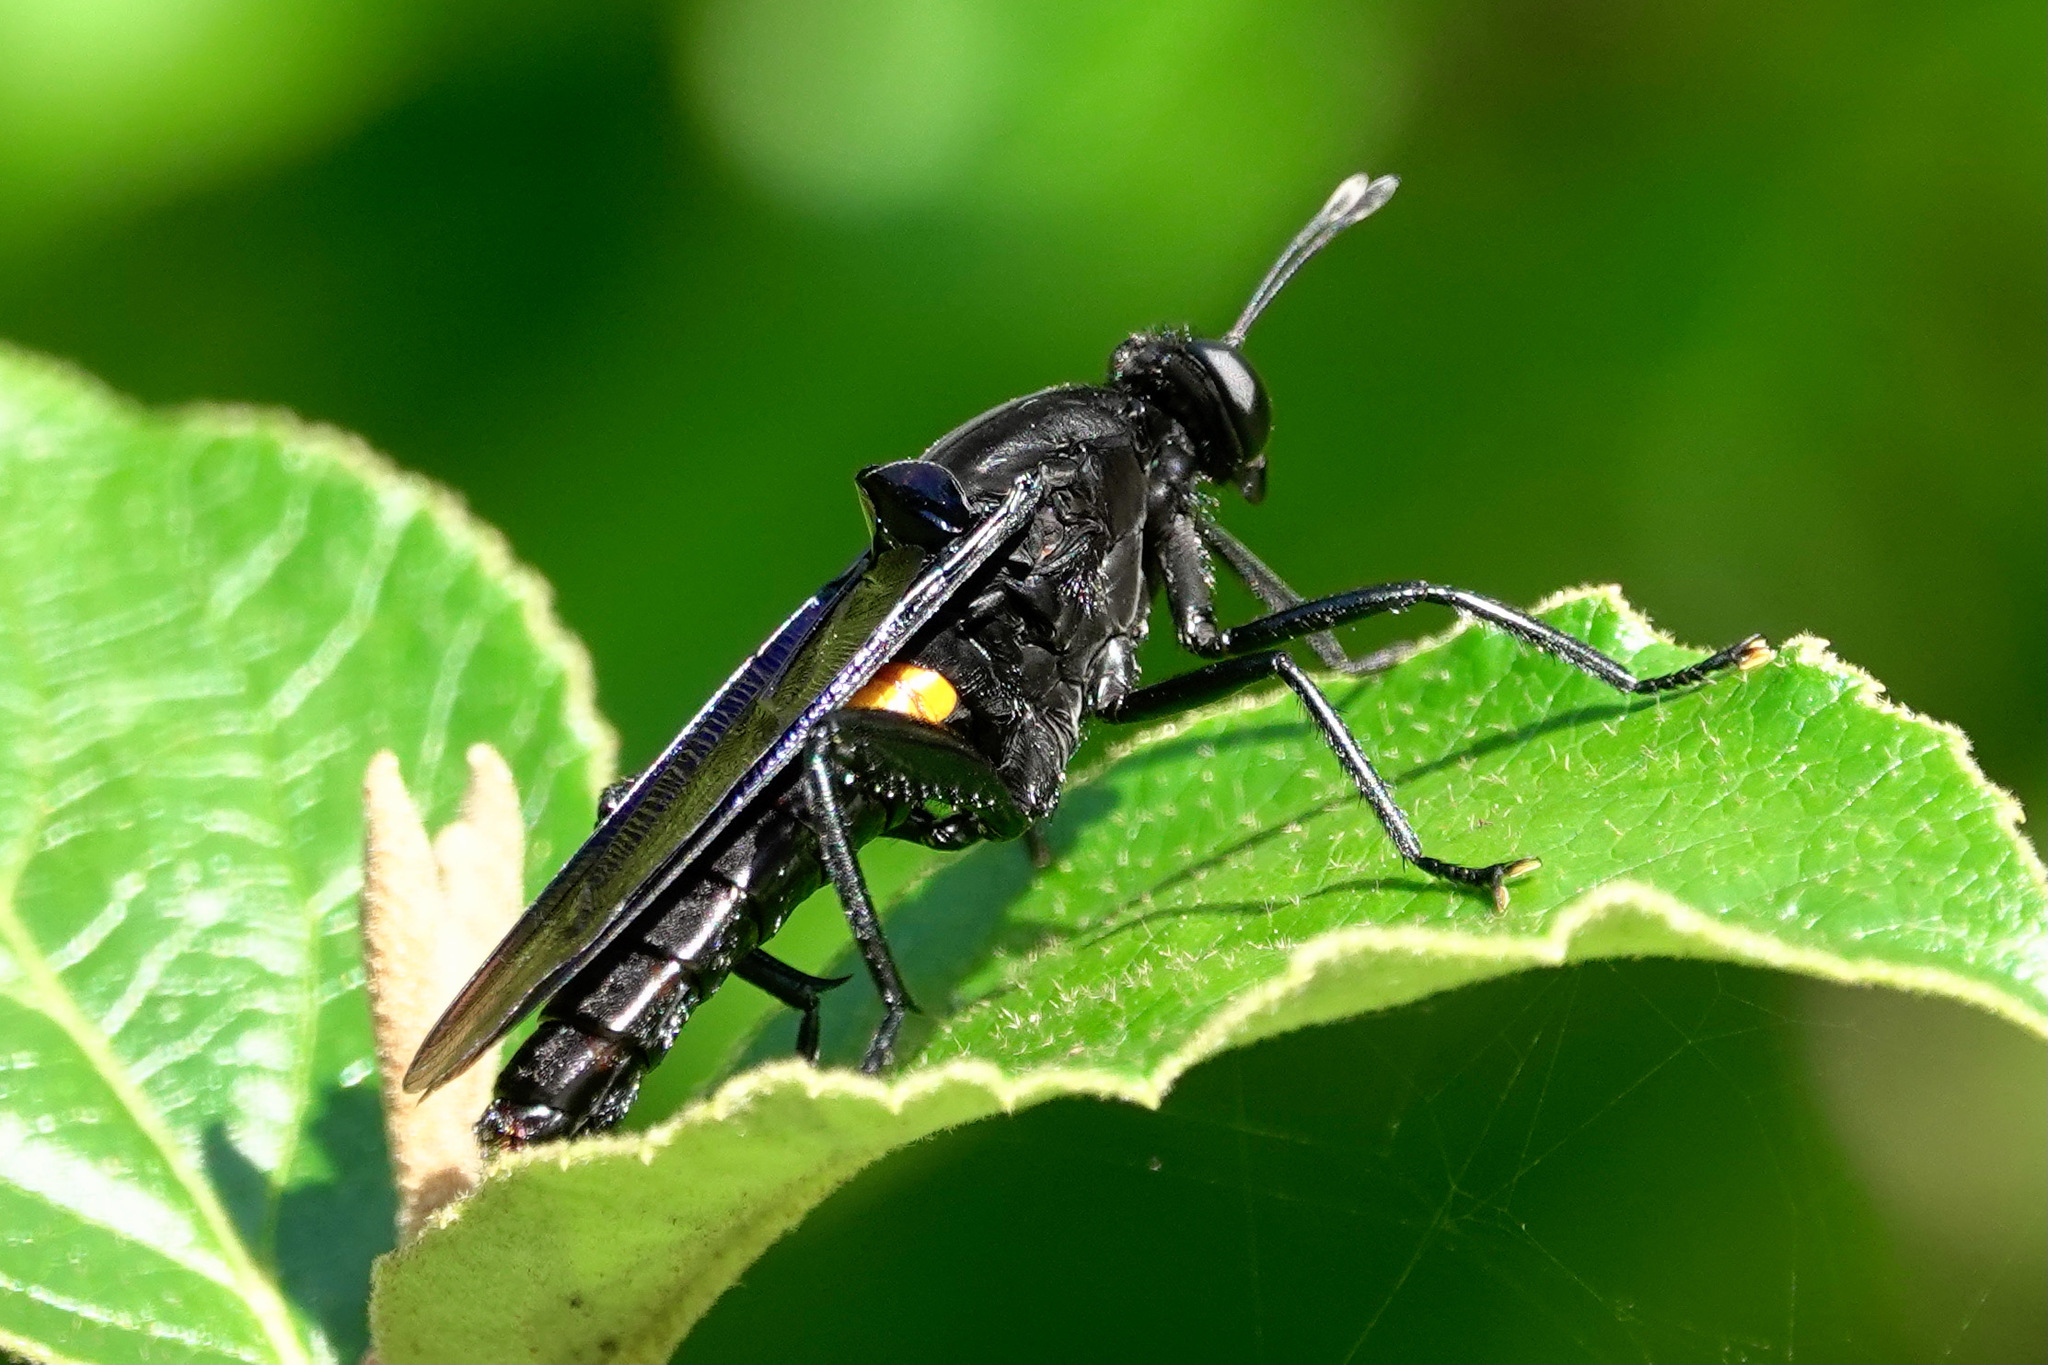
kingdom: Animalia
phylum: Arthropoda
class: Insecta
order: Diptera
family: Mydidae
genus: Mydas
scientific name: Mydas clavatus
